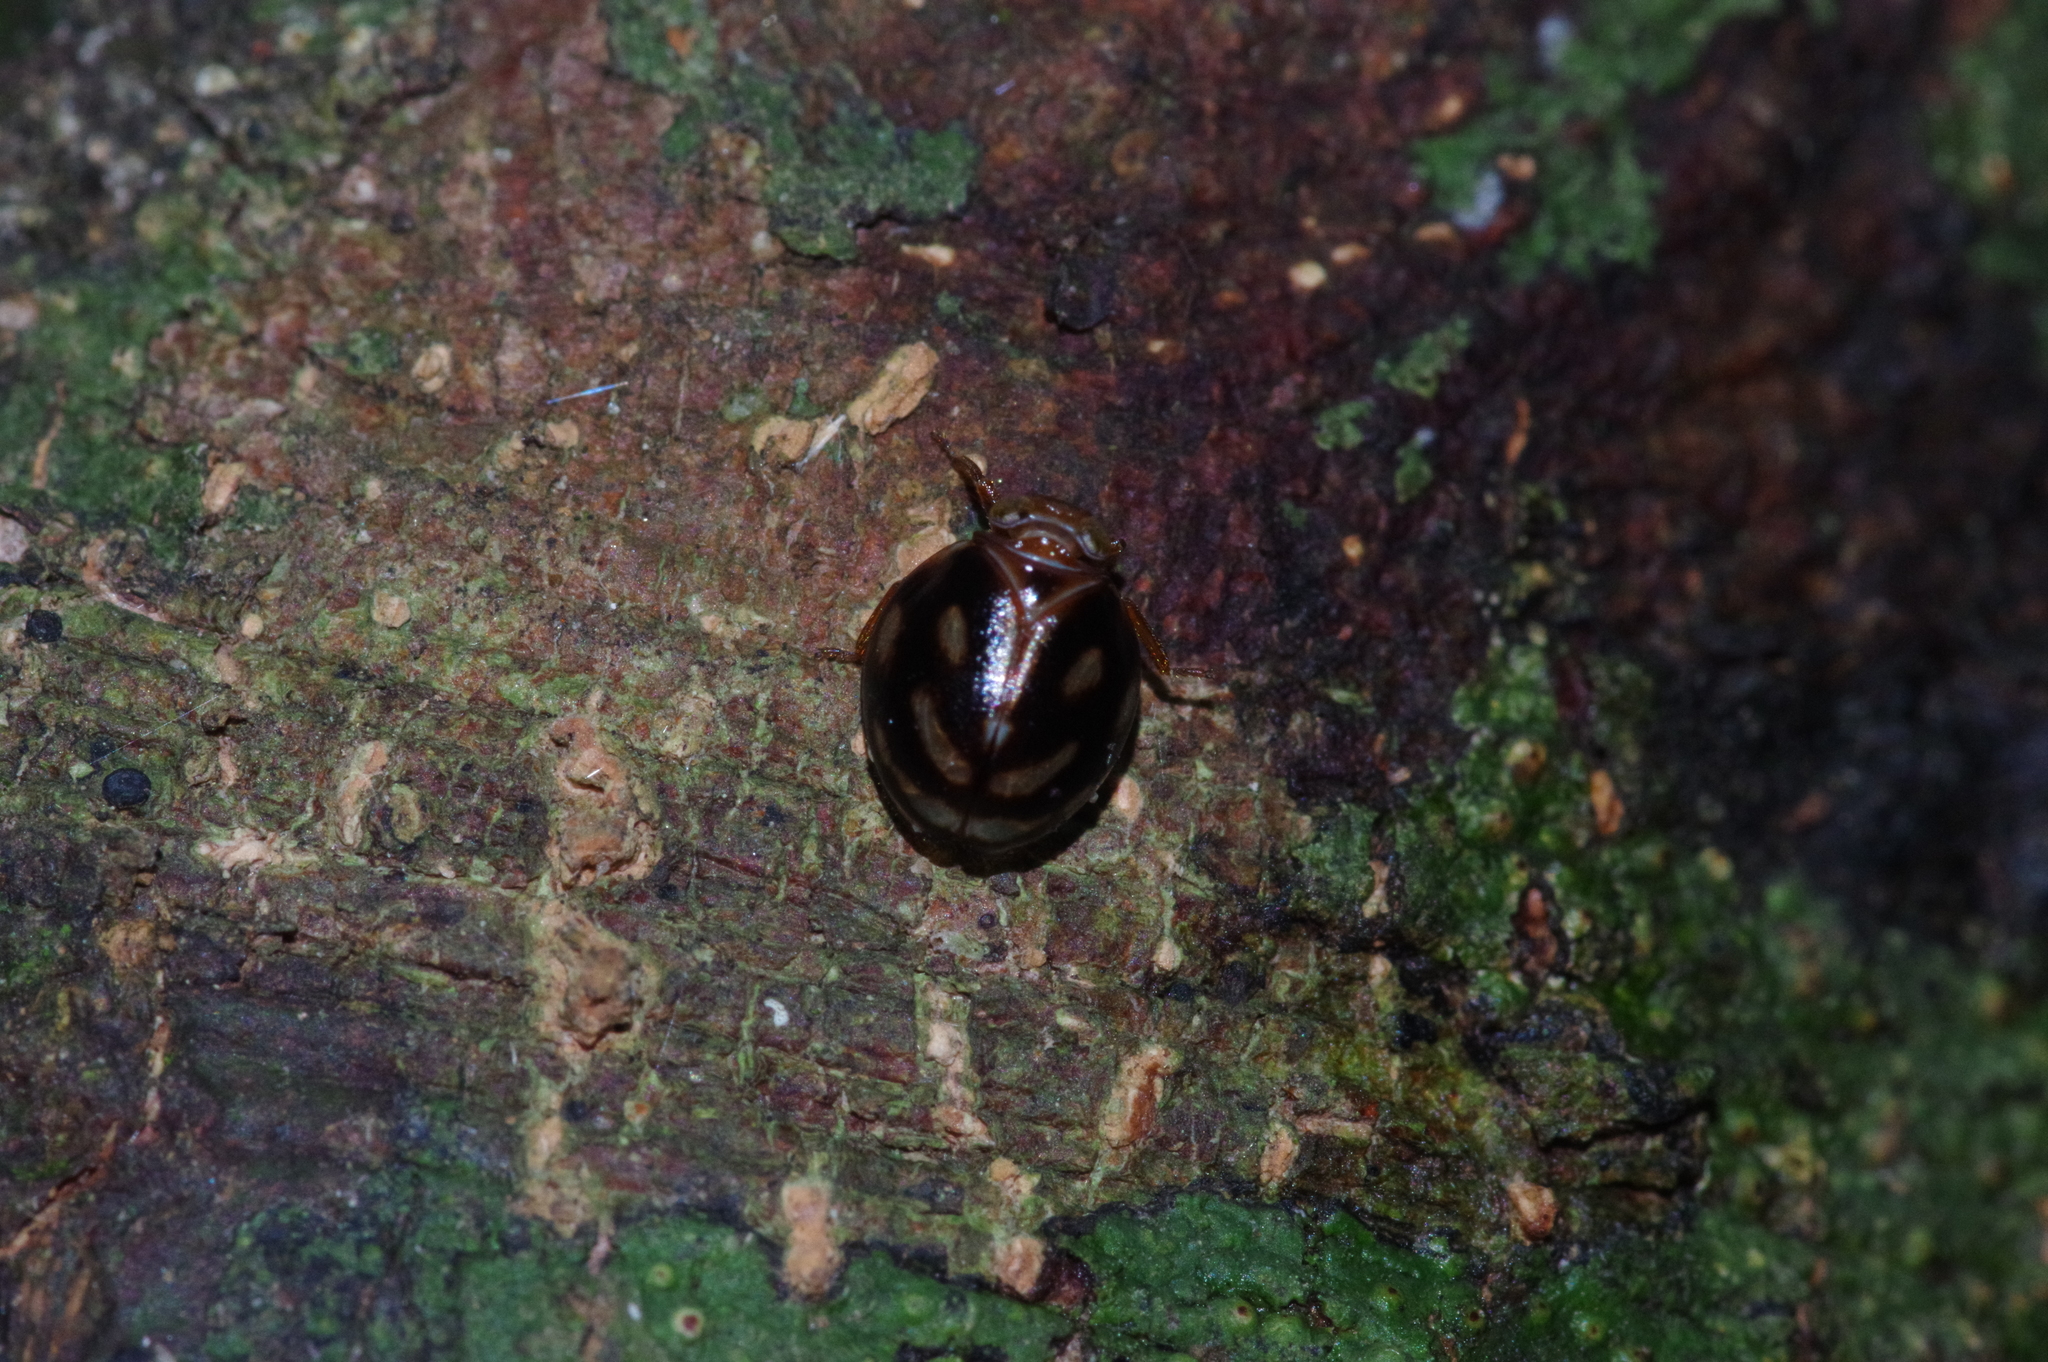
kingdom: Animalia
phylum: Arthropoda
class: Insecta
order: Hemiptera
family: Issidae
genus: Gnezdilovius
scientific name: Gnezdilovius okinawanus
